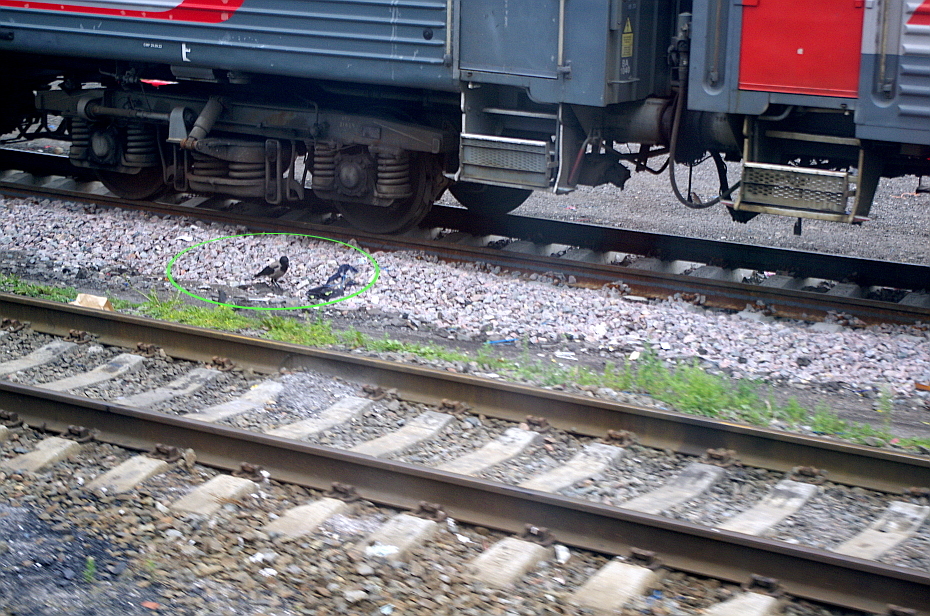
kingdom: Animalia
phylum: Chordata
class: Aves
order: Passeriformes
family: Corvidae
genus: Corvus
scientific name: Corvus cornix
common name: Hooded crow
